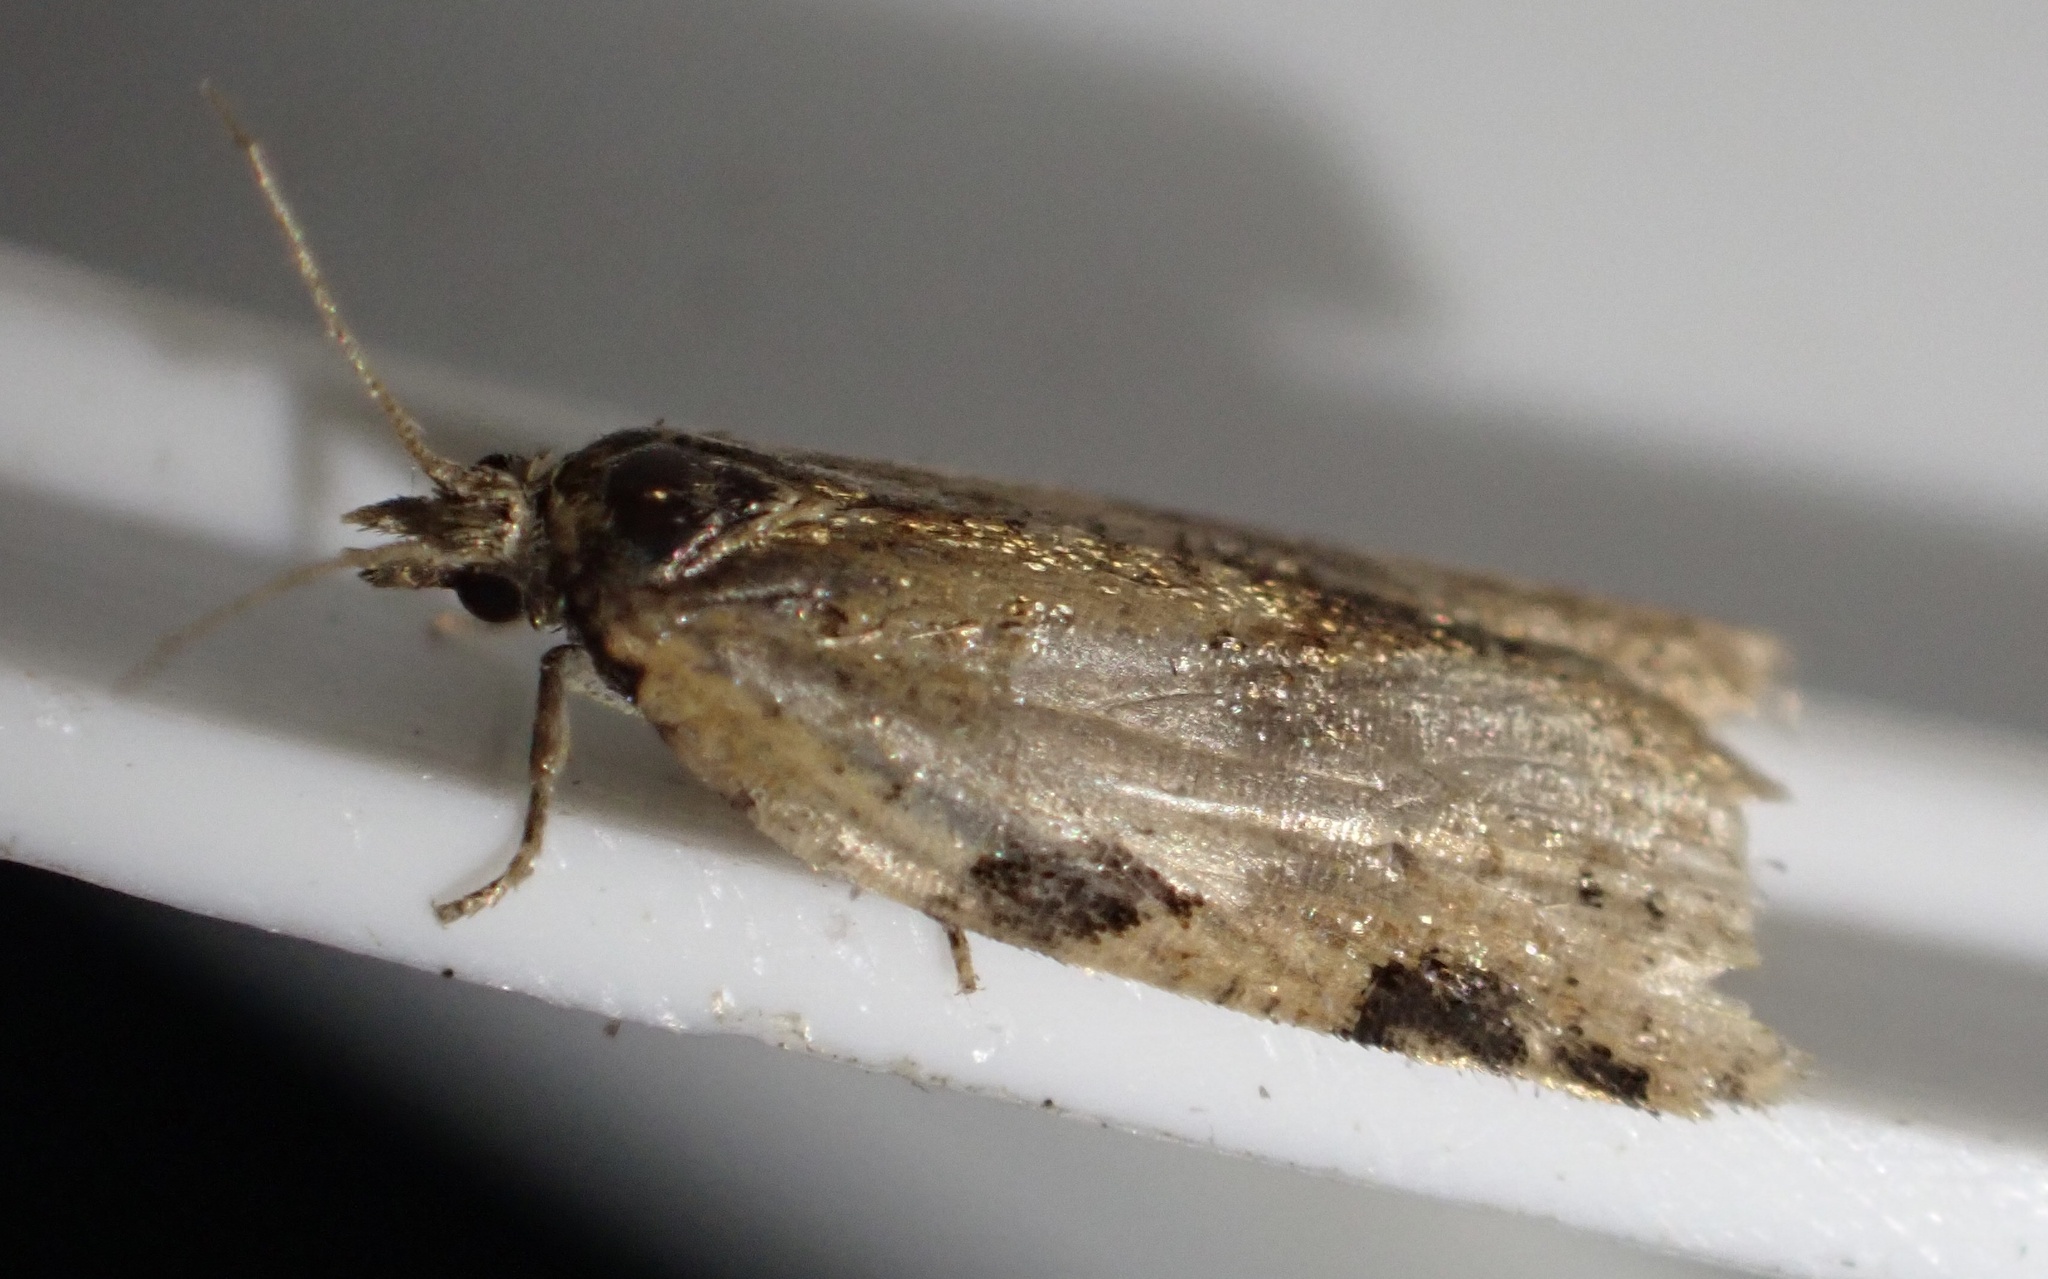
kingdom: Animalia
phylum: Arthropoda
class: Insecta
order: Lepidoptera
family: Tortricidae
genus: Clepsis
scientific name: Clepsis spectrana
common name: Cyclamen tortrix
